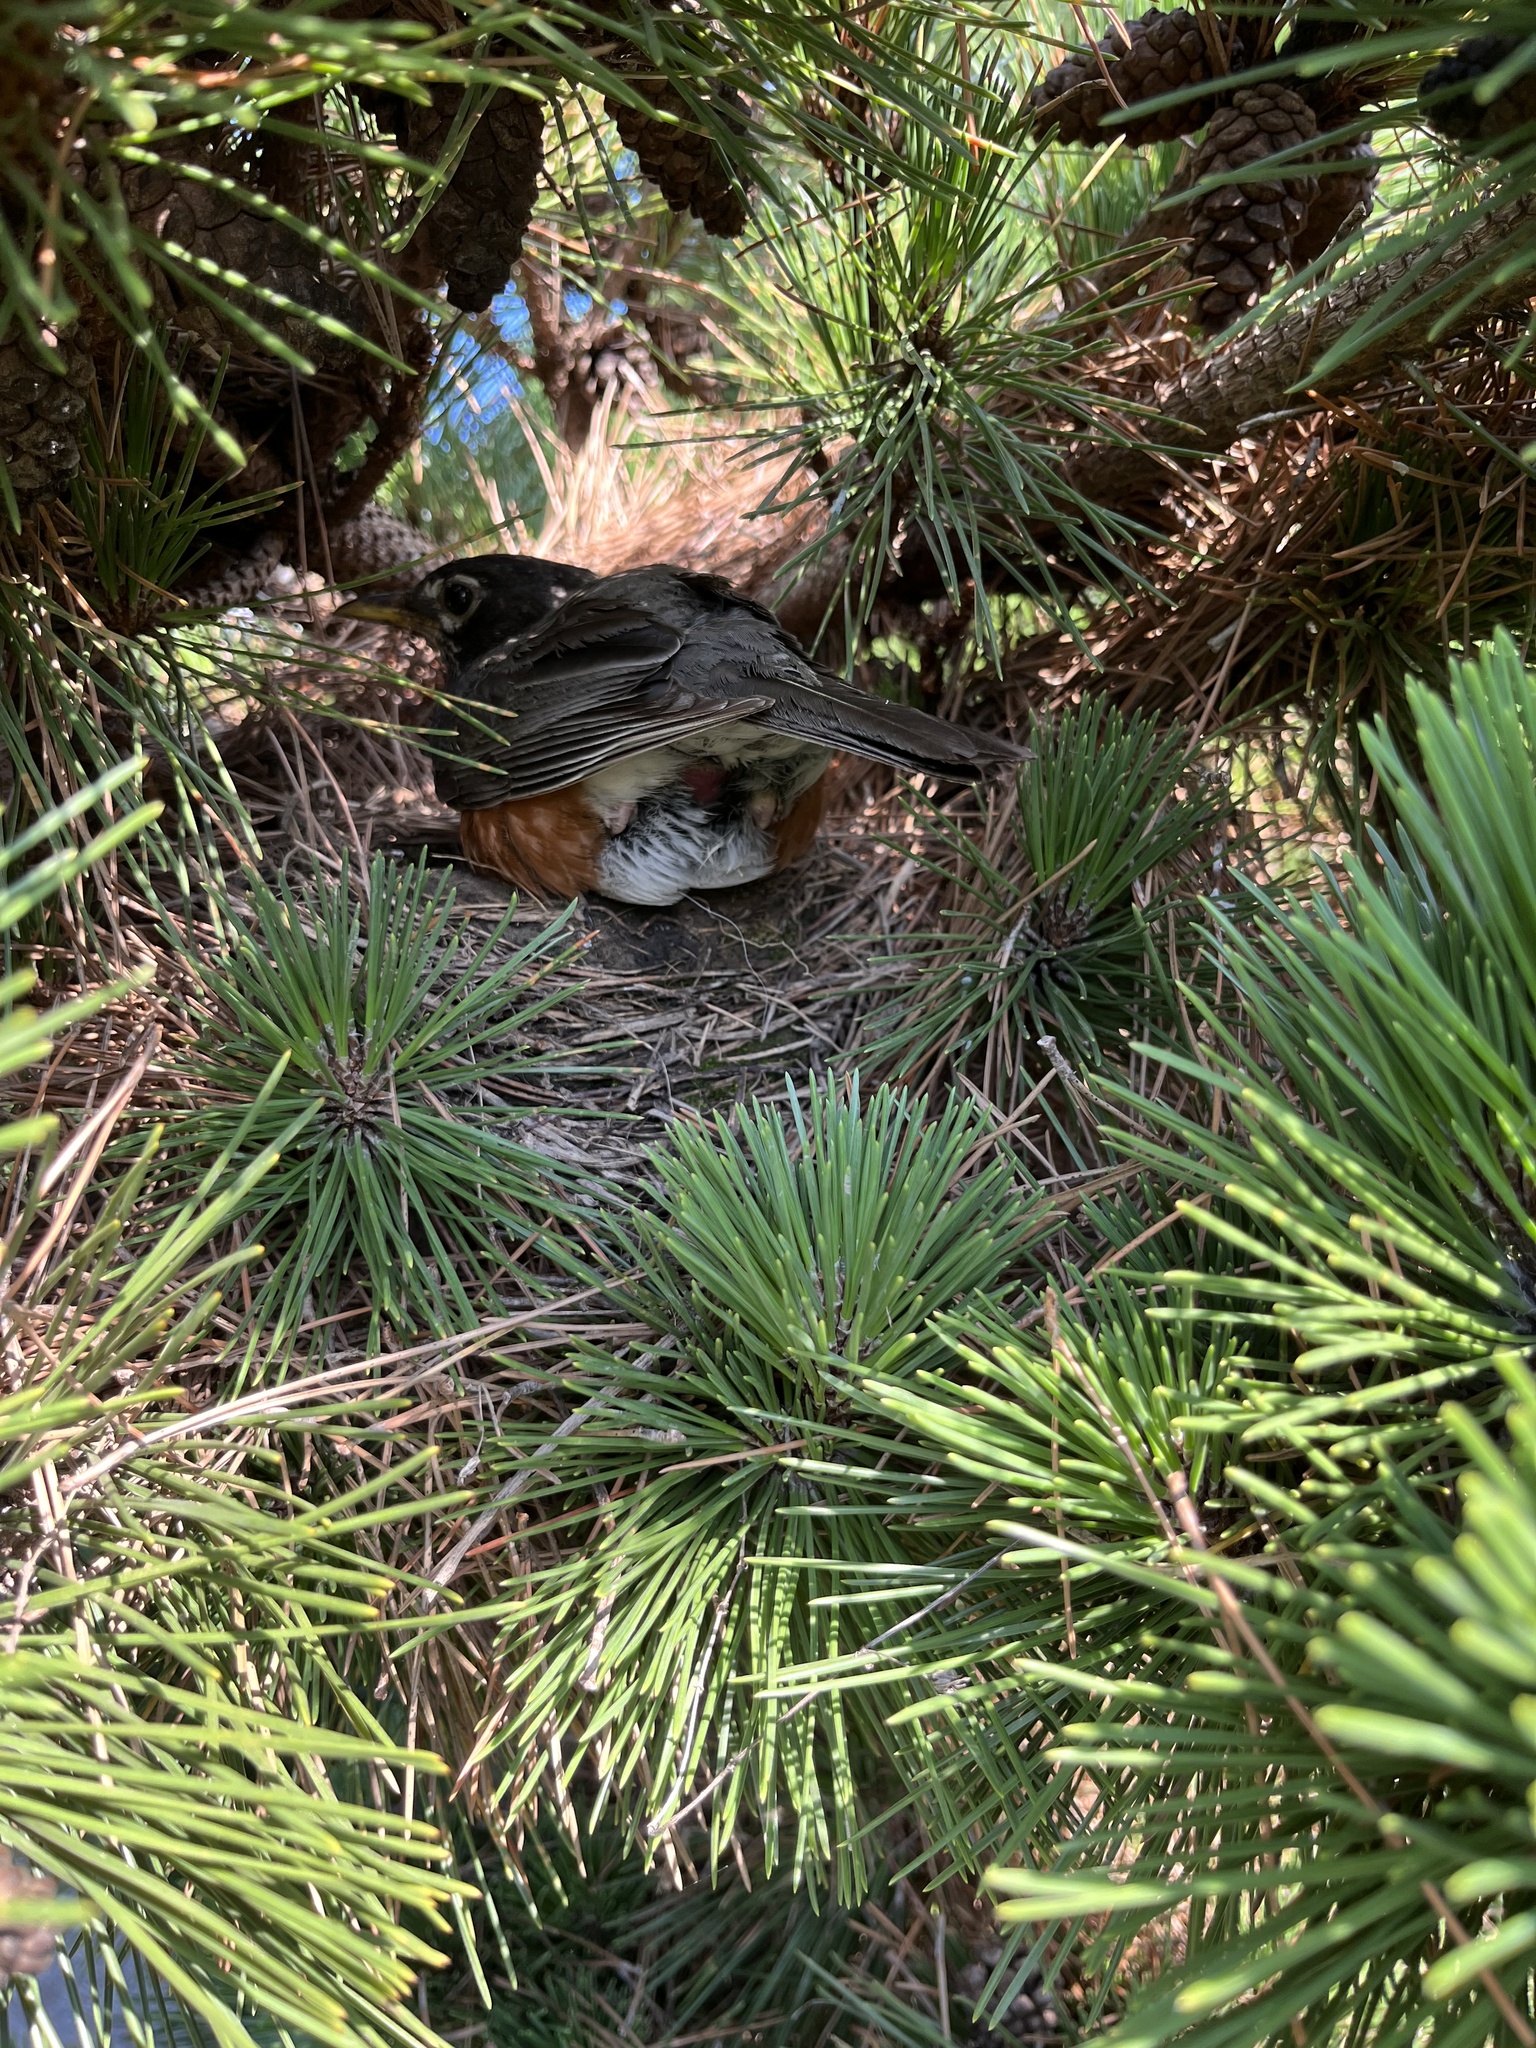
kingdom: Animalia
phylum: Chordata
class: Aves
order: Passeriformes
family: Turdidae
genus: Turdus
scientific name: Turdus migratorius
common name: American robin
